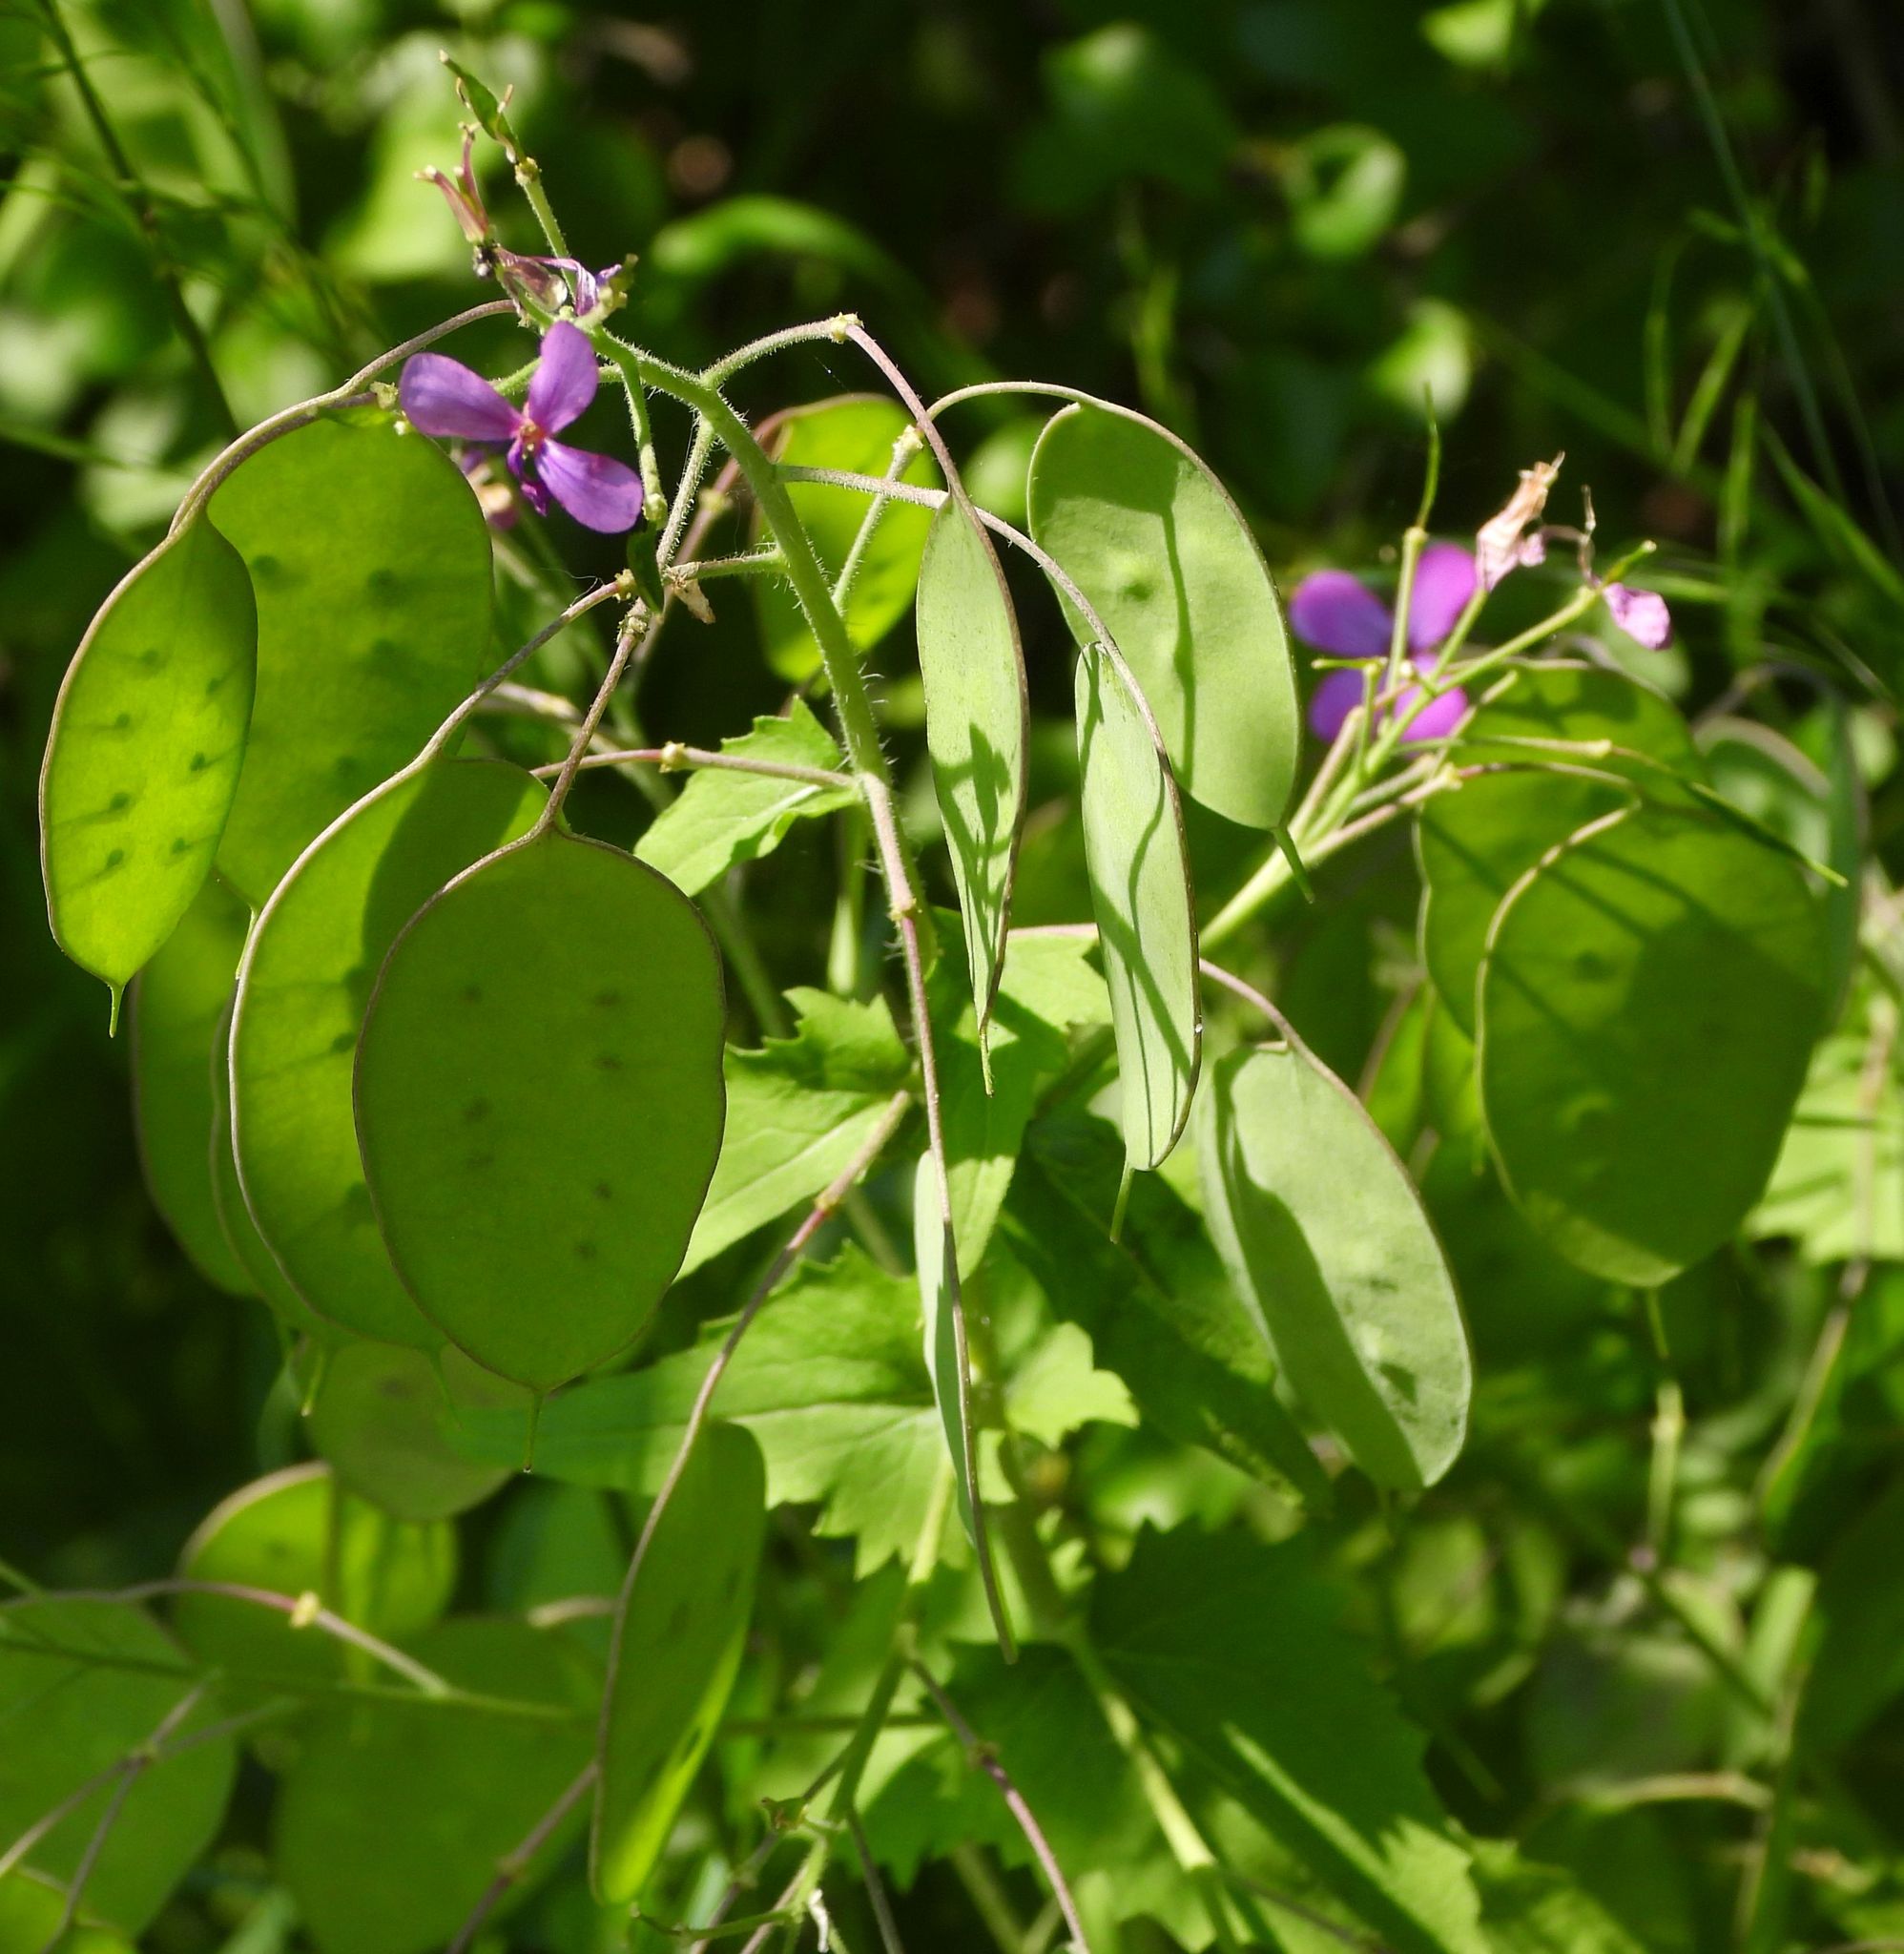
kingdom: Plantae
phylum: Tracheophyta
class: Magnoliopsida
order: Brassicales
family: Brassicaceae
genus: Lunaria
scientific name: Lunaria annua
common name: Honesty
